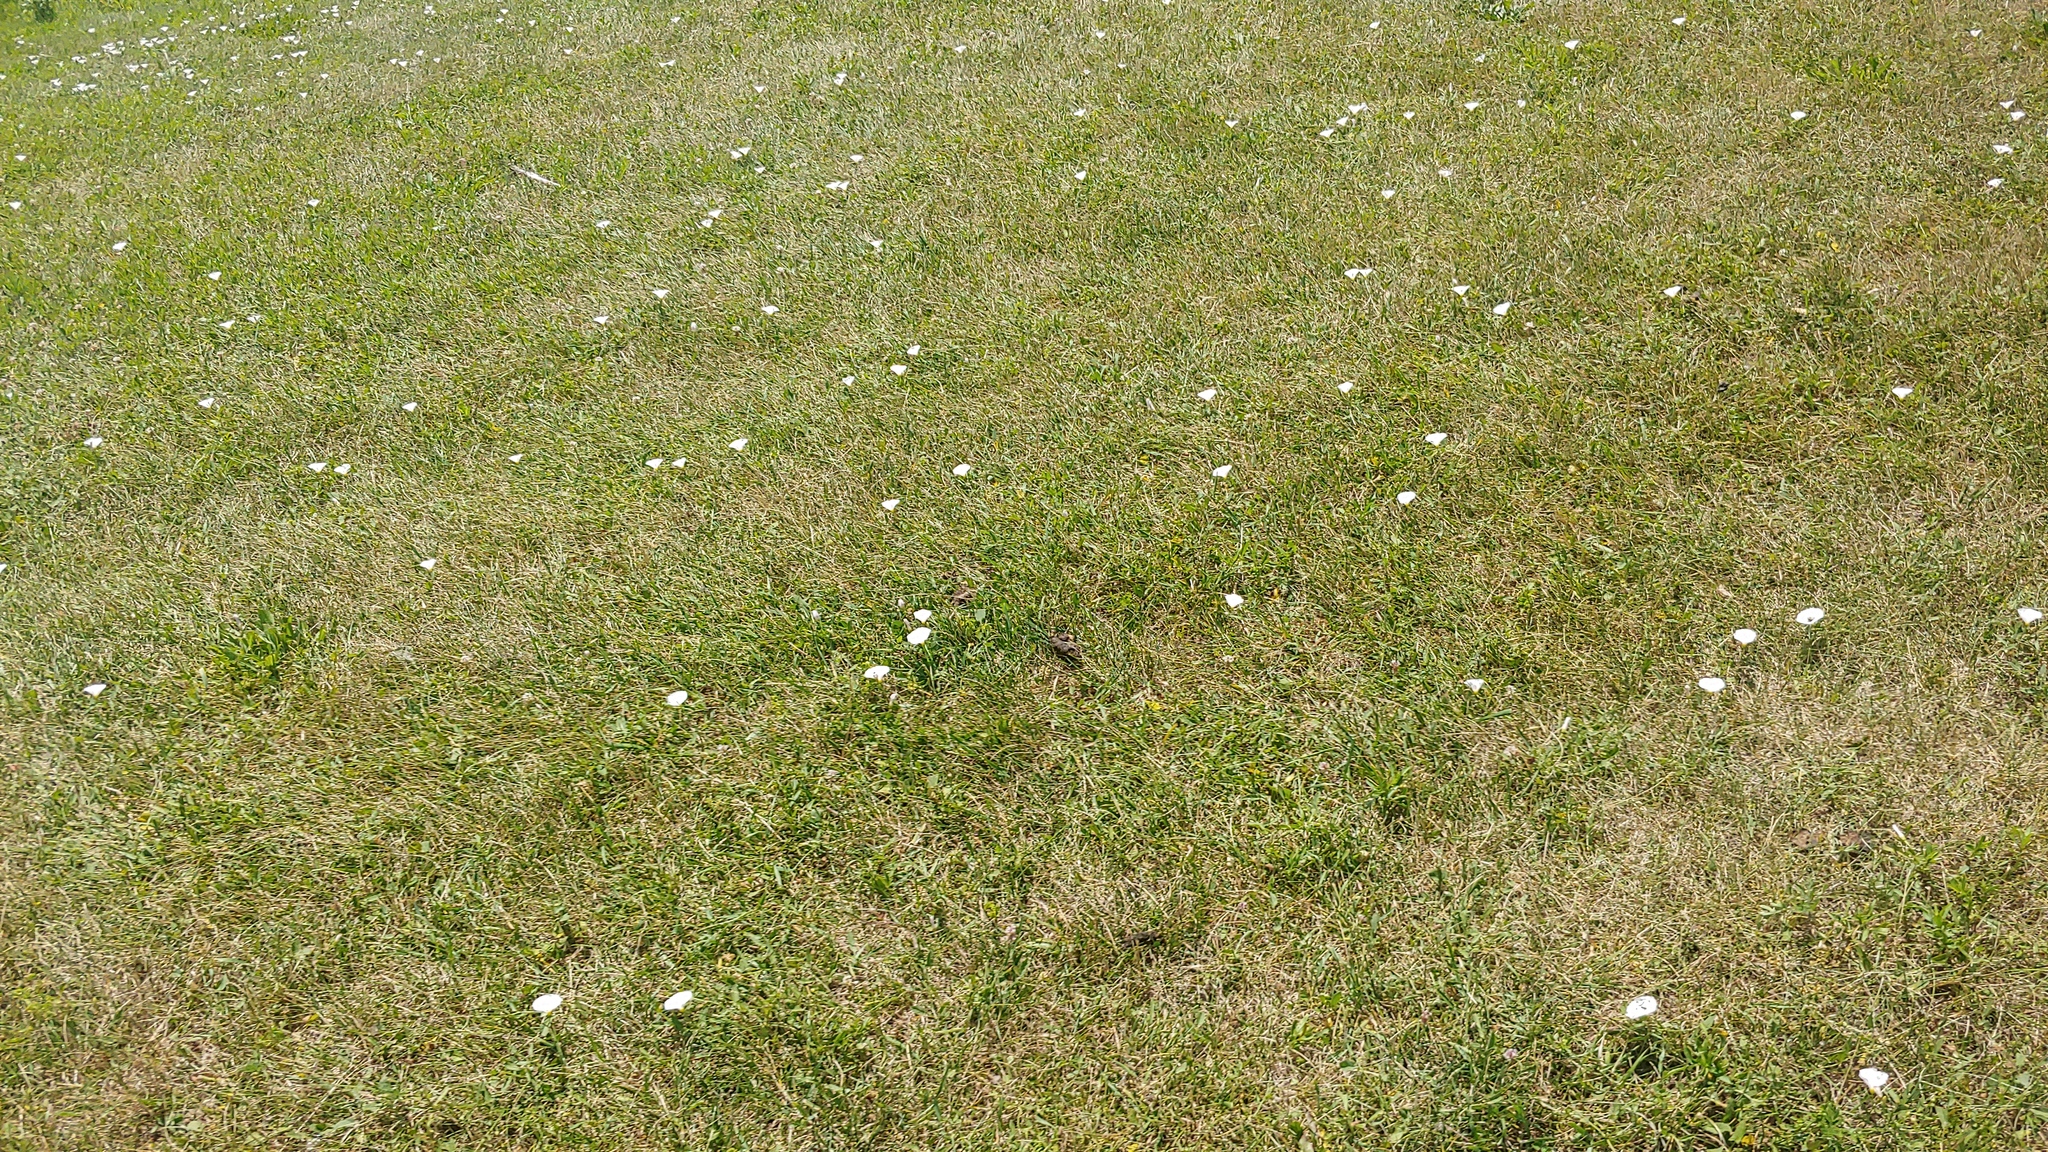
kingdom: Plantae
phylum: Tracheophyta
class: Magnoliopsida
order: Solanales
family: Convolvulaceae
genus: Convolvulus
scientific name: Convolvulus arvensis
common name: Field bindweed
